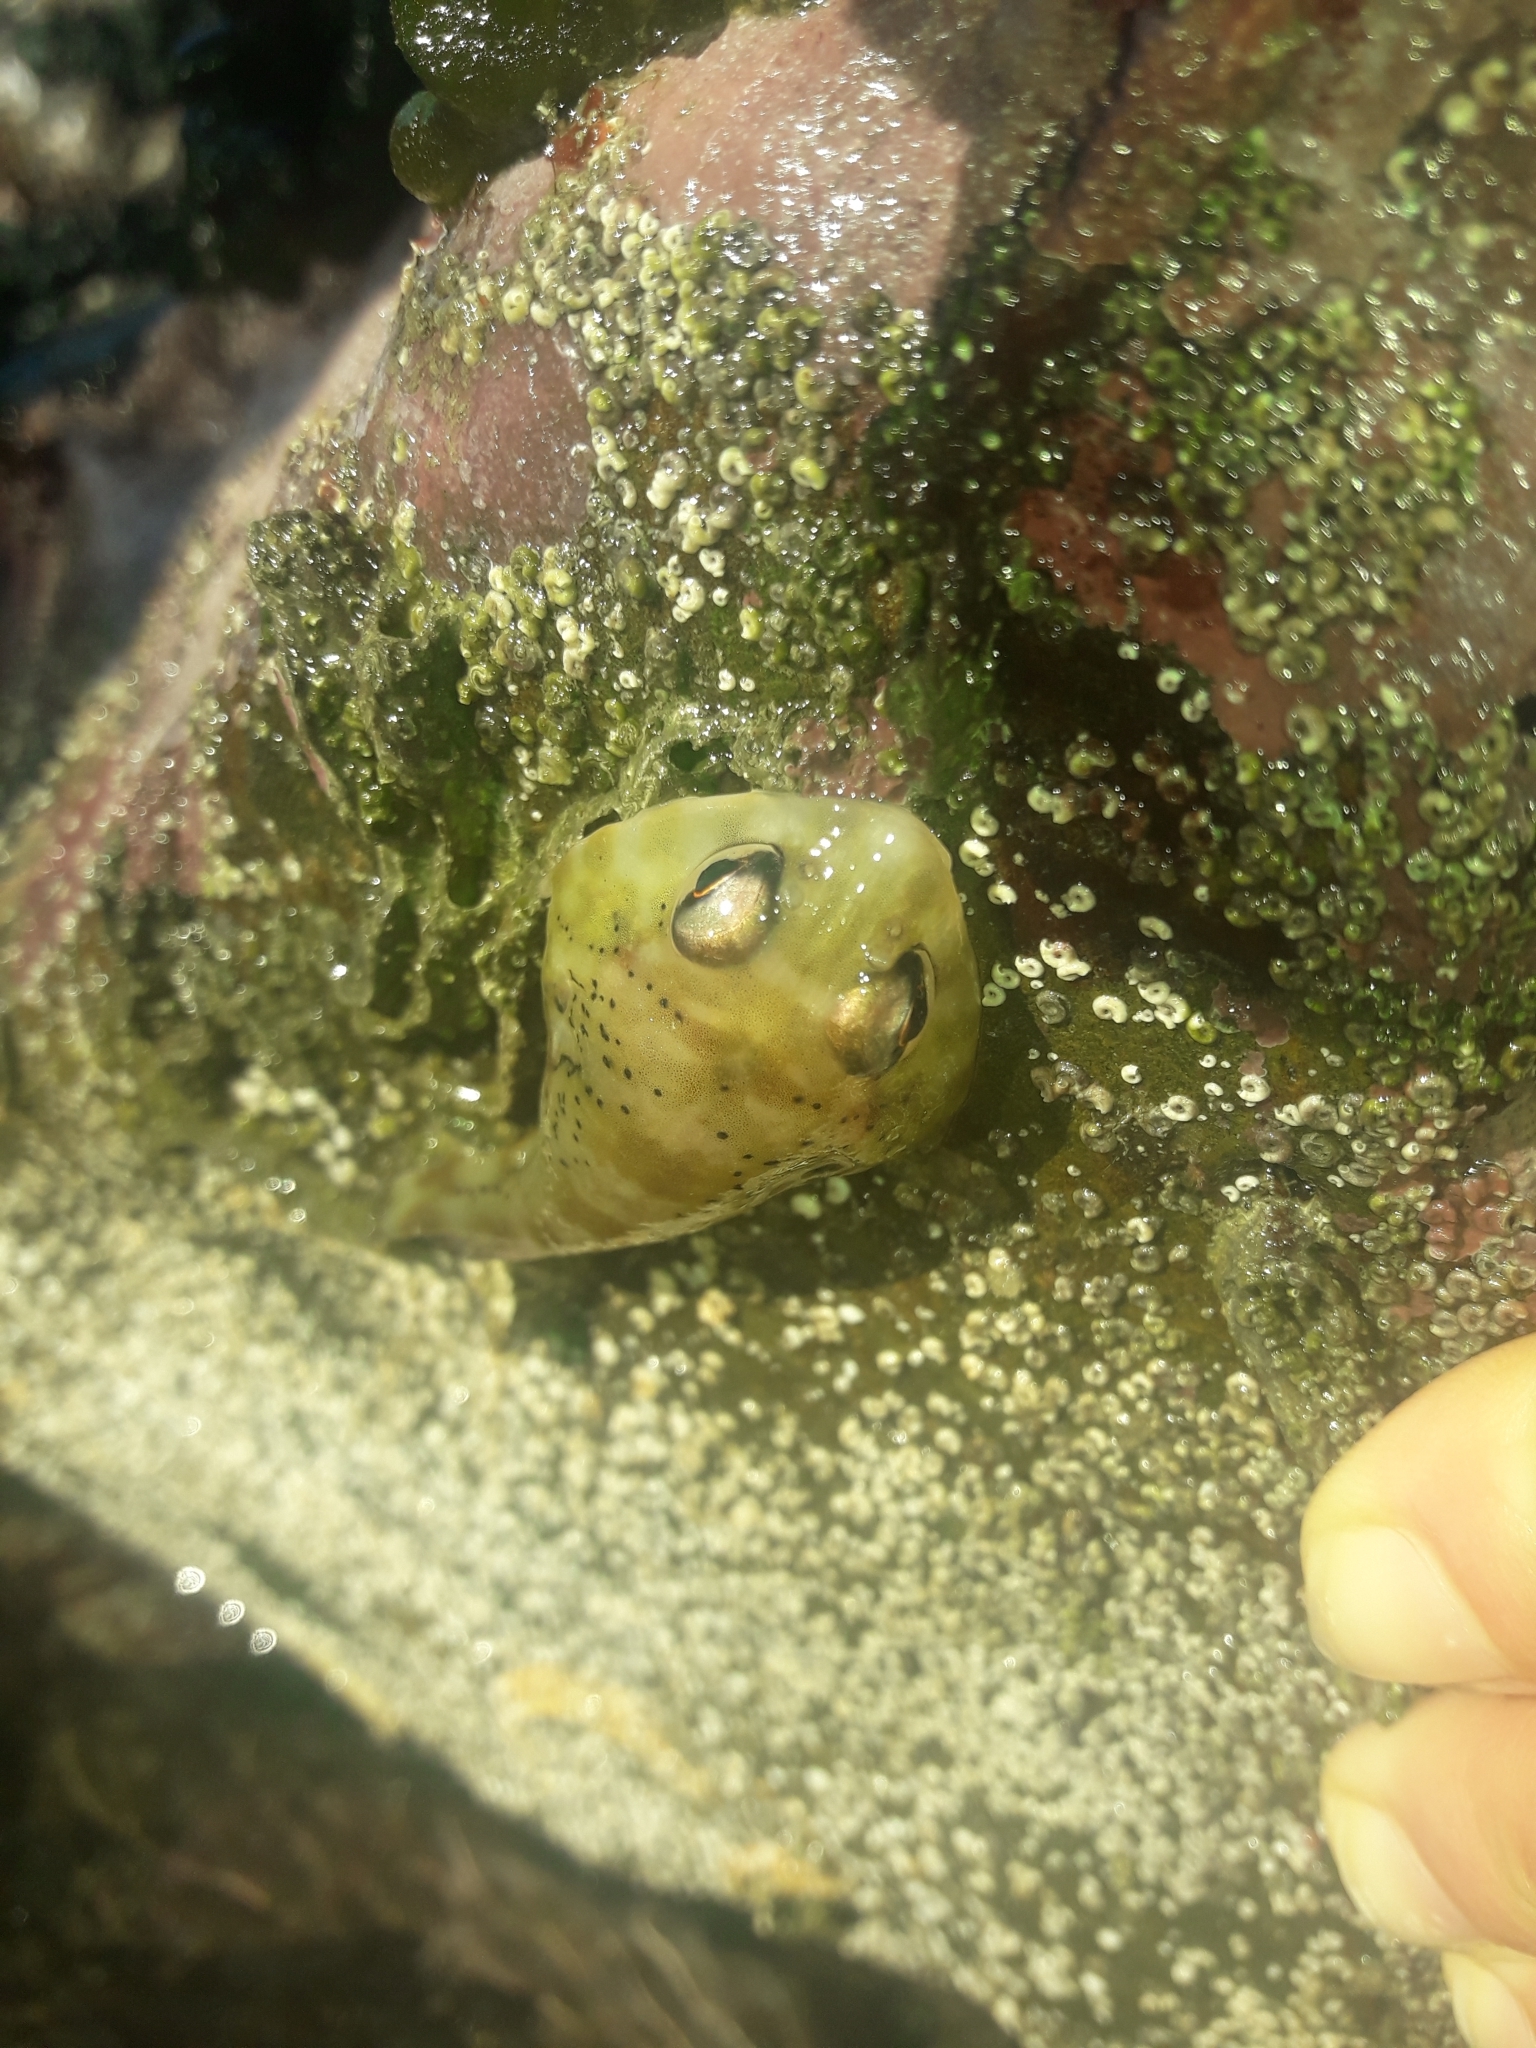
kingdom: Animalia
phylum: Chordata
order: Gobiesociformes
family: Gobiesocidae
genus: Diplocrepis
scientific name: Diplocrepis puniceus
